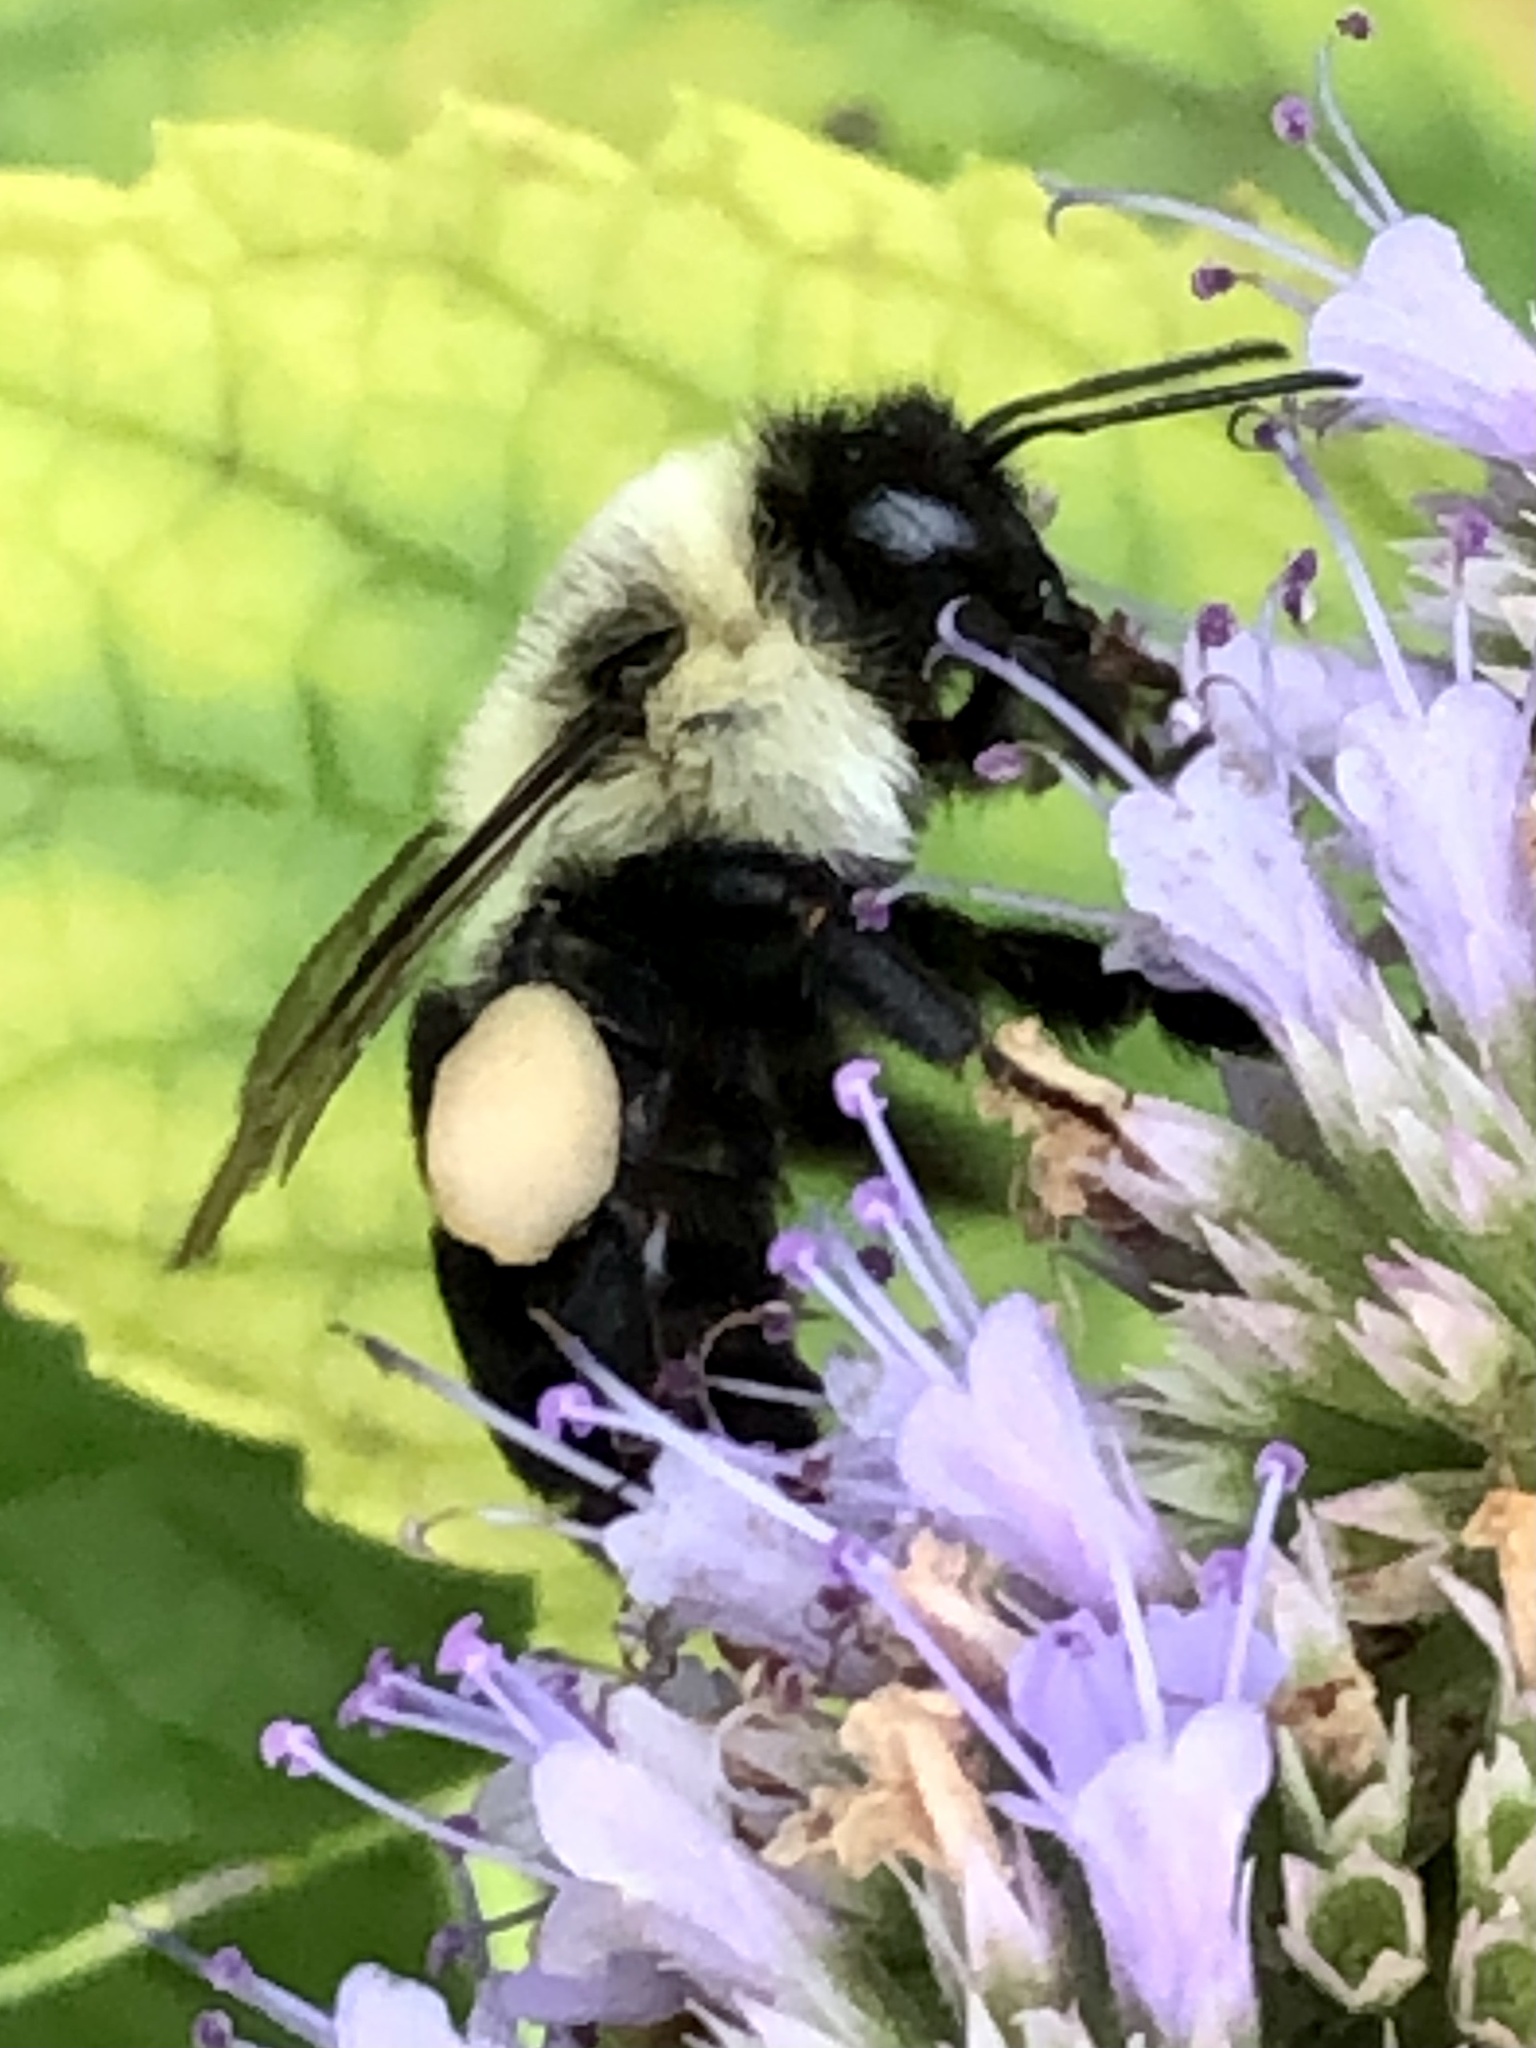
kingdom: Animalia
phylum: Arthropoda
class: Insecta
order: Hymenoptera
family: Apidae
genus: Bombus
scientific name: Bombus impatiens
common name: Common eastern bumble bee
